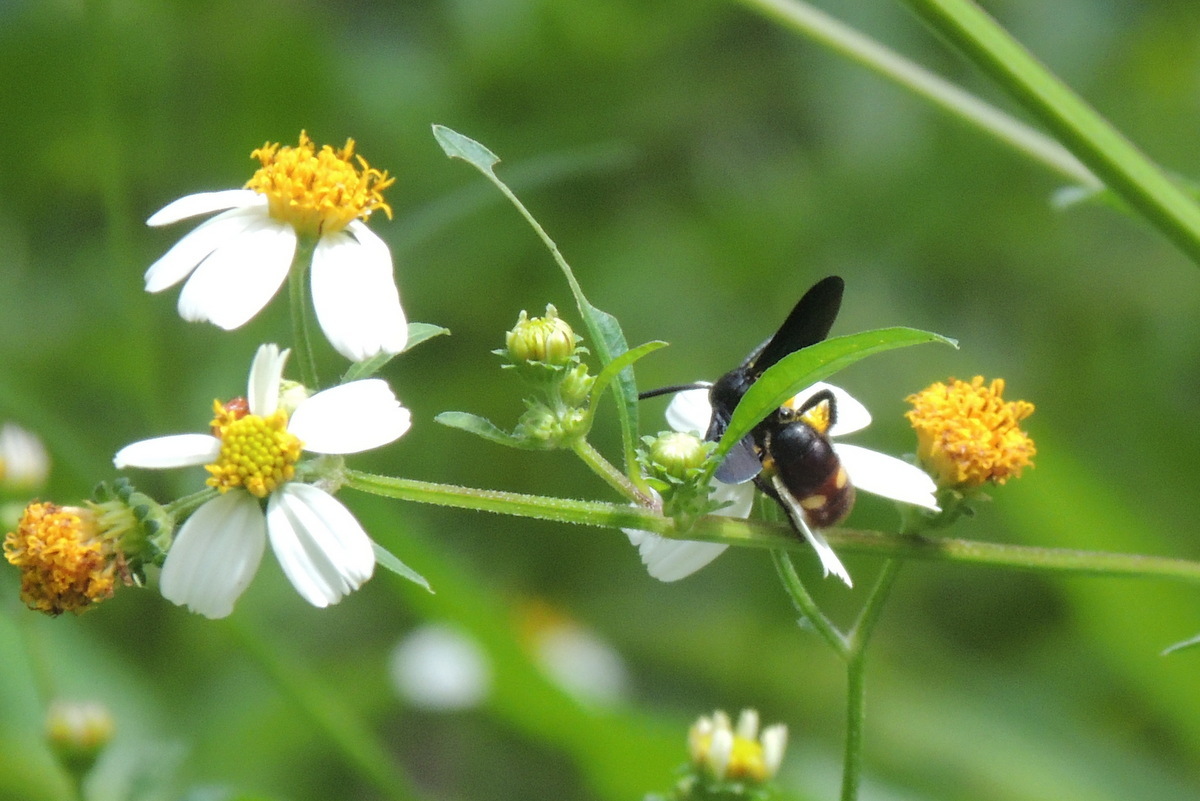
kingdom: Animalia
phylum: Arthropoda
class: Insecta
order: Hymenoptera
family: Scoliidae
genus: Scolia
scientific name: Scolia dubia
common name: Blue-winged scoliid wasp
